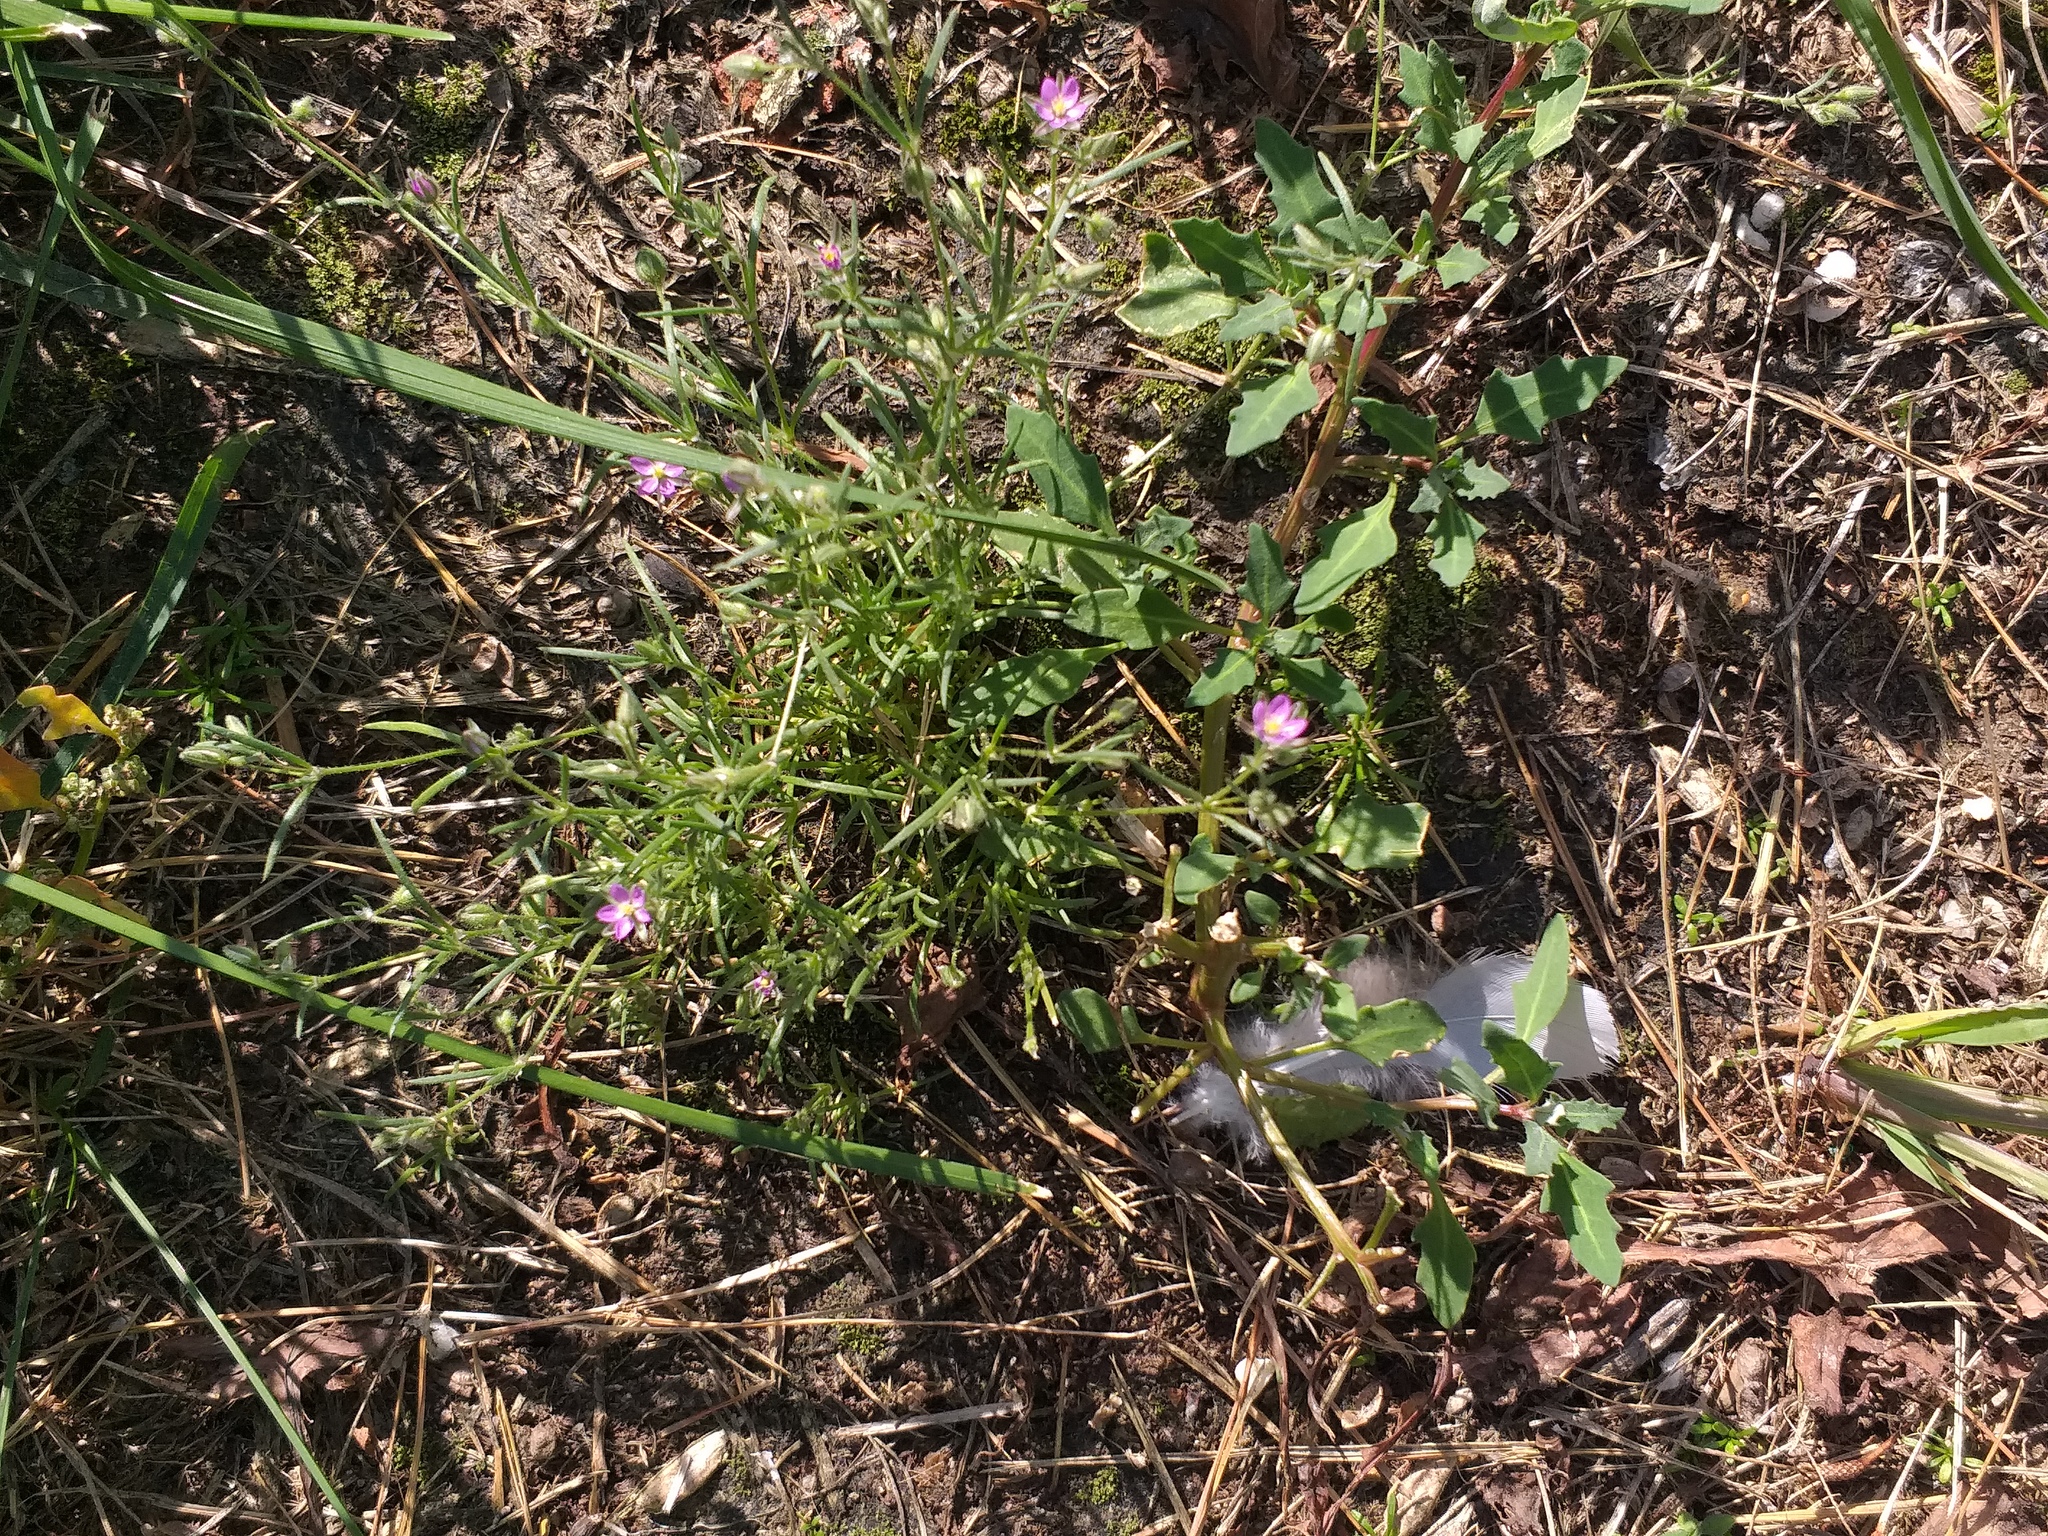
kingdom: Plantae
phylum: Tracheophyta
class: Magnoliopsida
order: Caryophyllales
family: Caryophyllaceae
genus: Spergularia
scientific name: Spergularia rubra
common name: Red sand-spurrey
